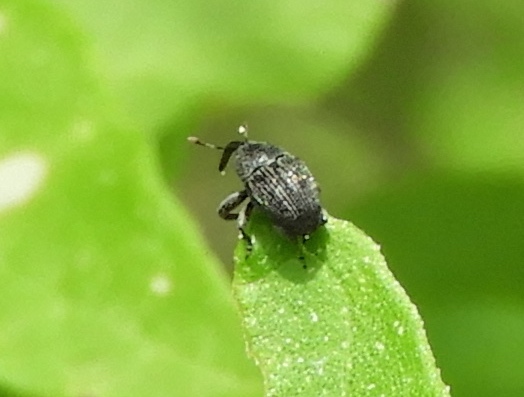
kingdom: Animalia
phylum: Arthropoda
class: Insecta
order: Coleoptera
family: Curculionidae
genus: Baridinae
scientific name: Baridinae
